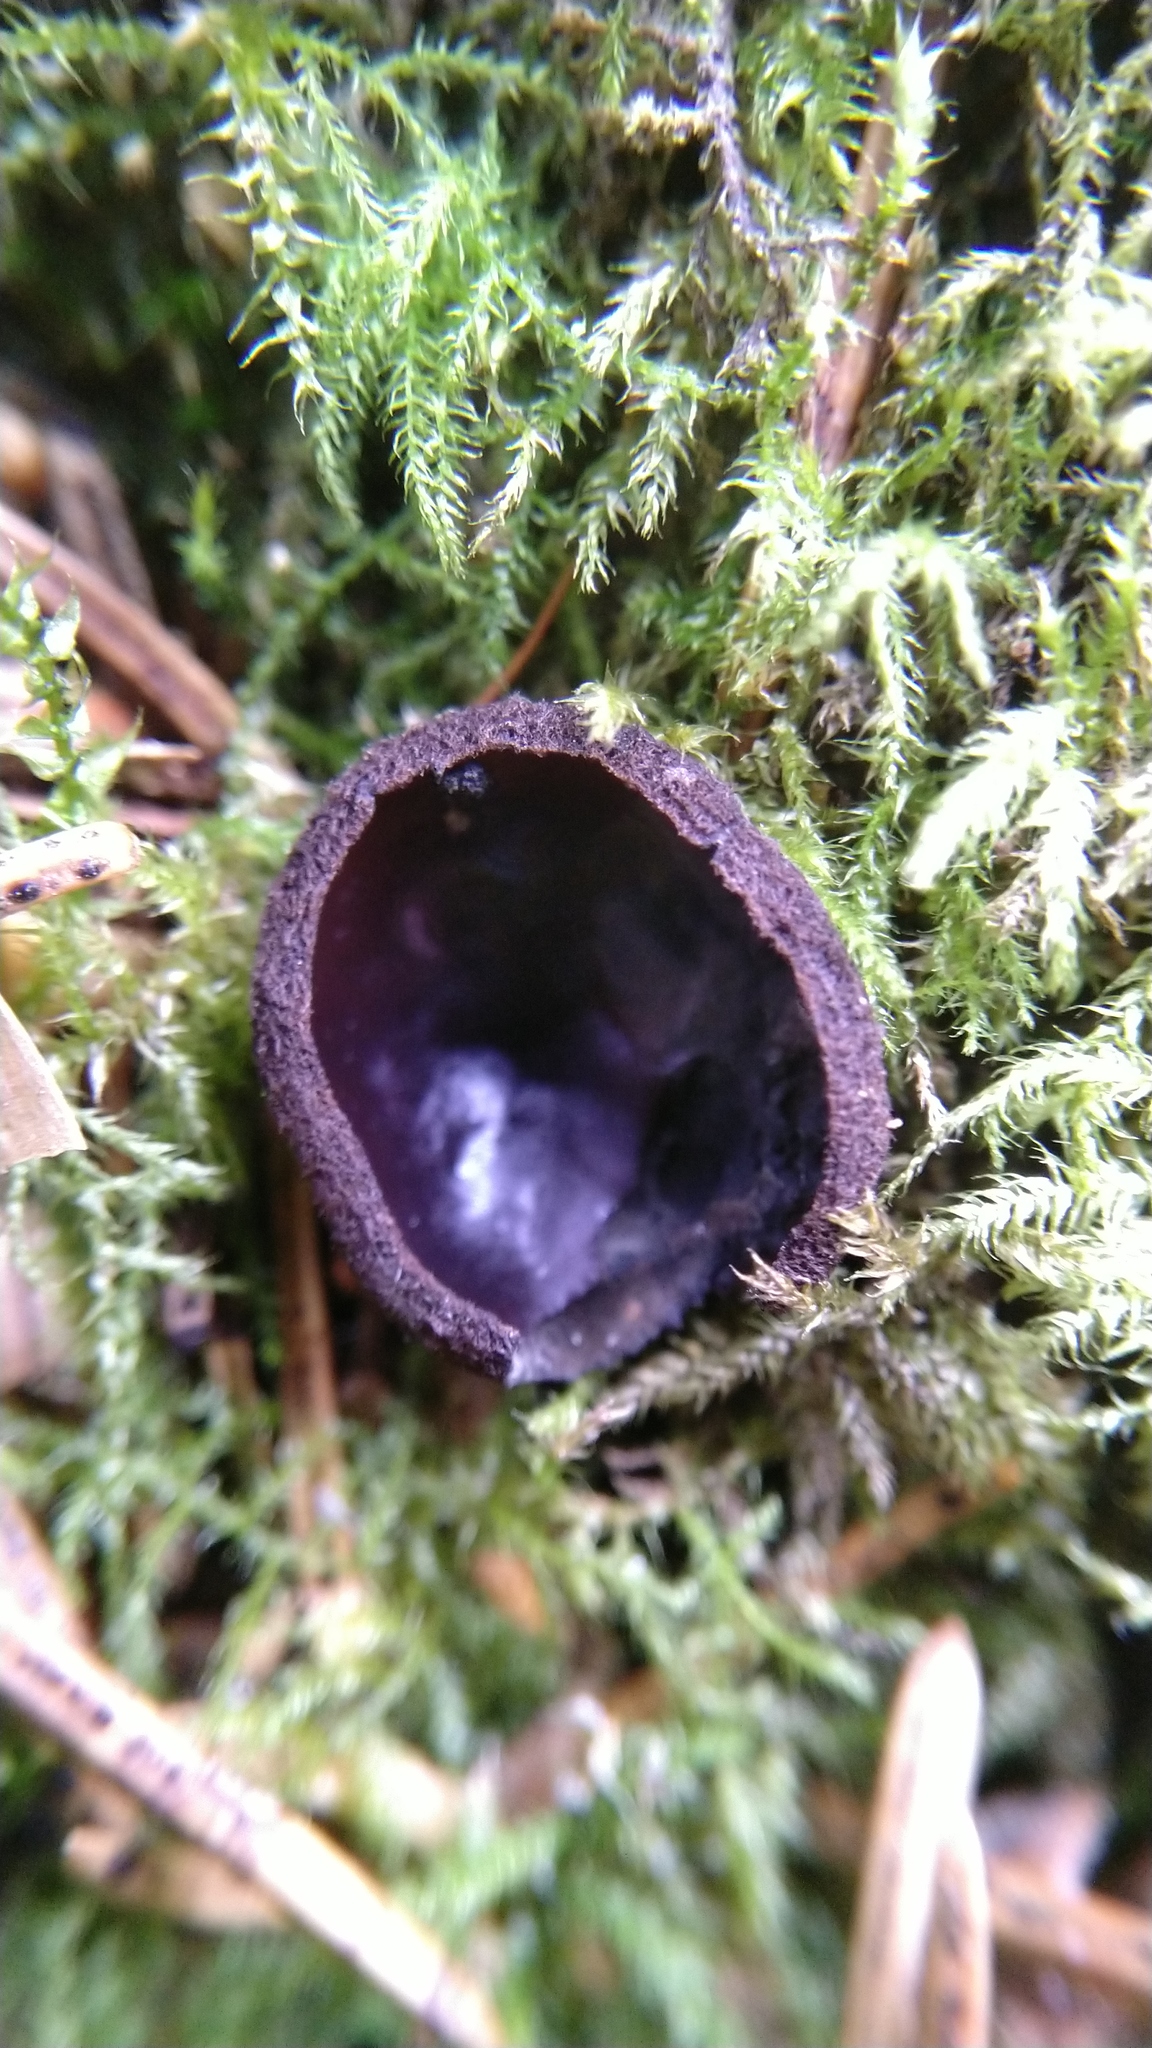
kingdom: Fungi
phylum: Ascomycota
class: Pezizomycetes
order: Pezizales
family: Sarcosomataceae
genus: Pseudoplectania
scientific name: Pseudoplectania nigrella
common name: Ebony cup
